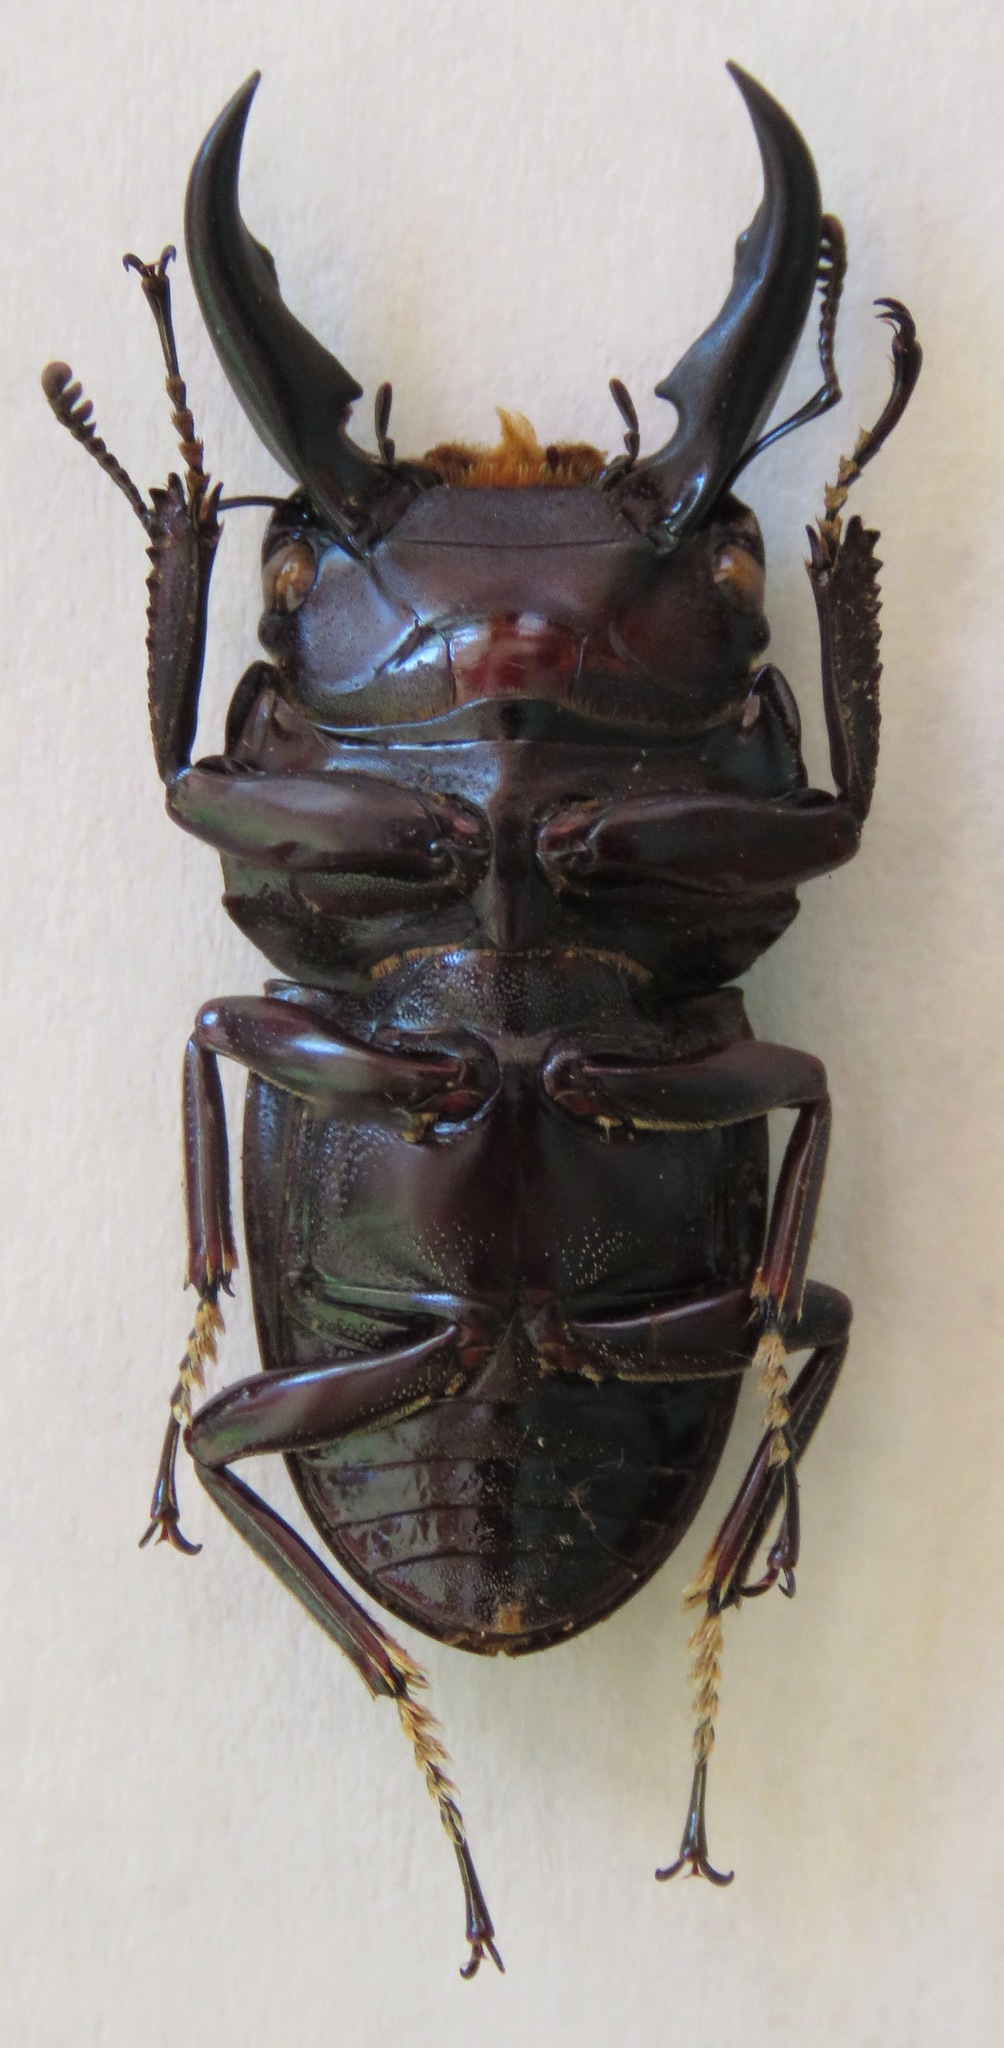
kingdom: Animalia
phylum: Arthropoda
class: Insecta
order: Coleoptera
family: Lucanidae
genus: Dorcus
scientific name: Dorcus ternatensis
